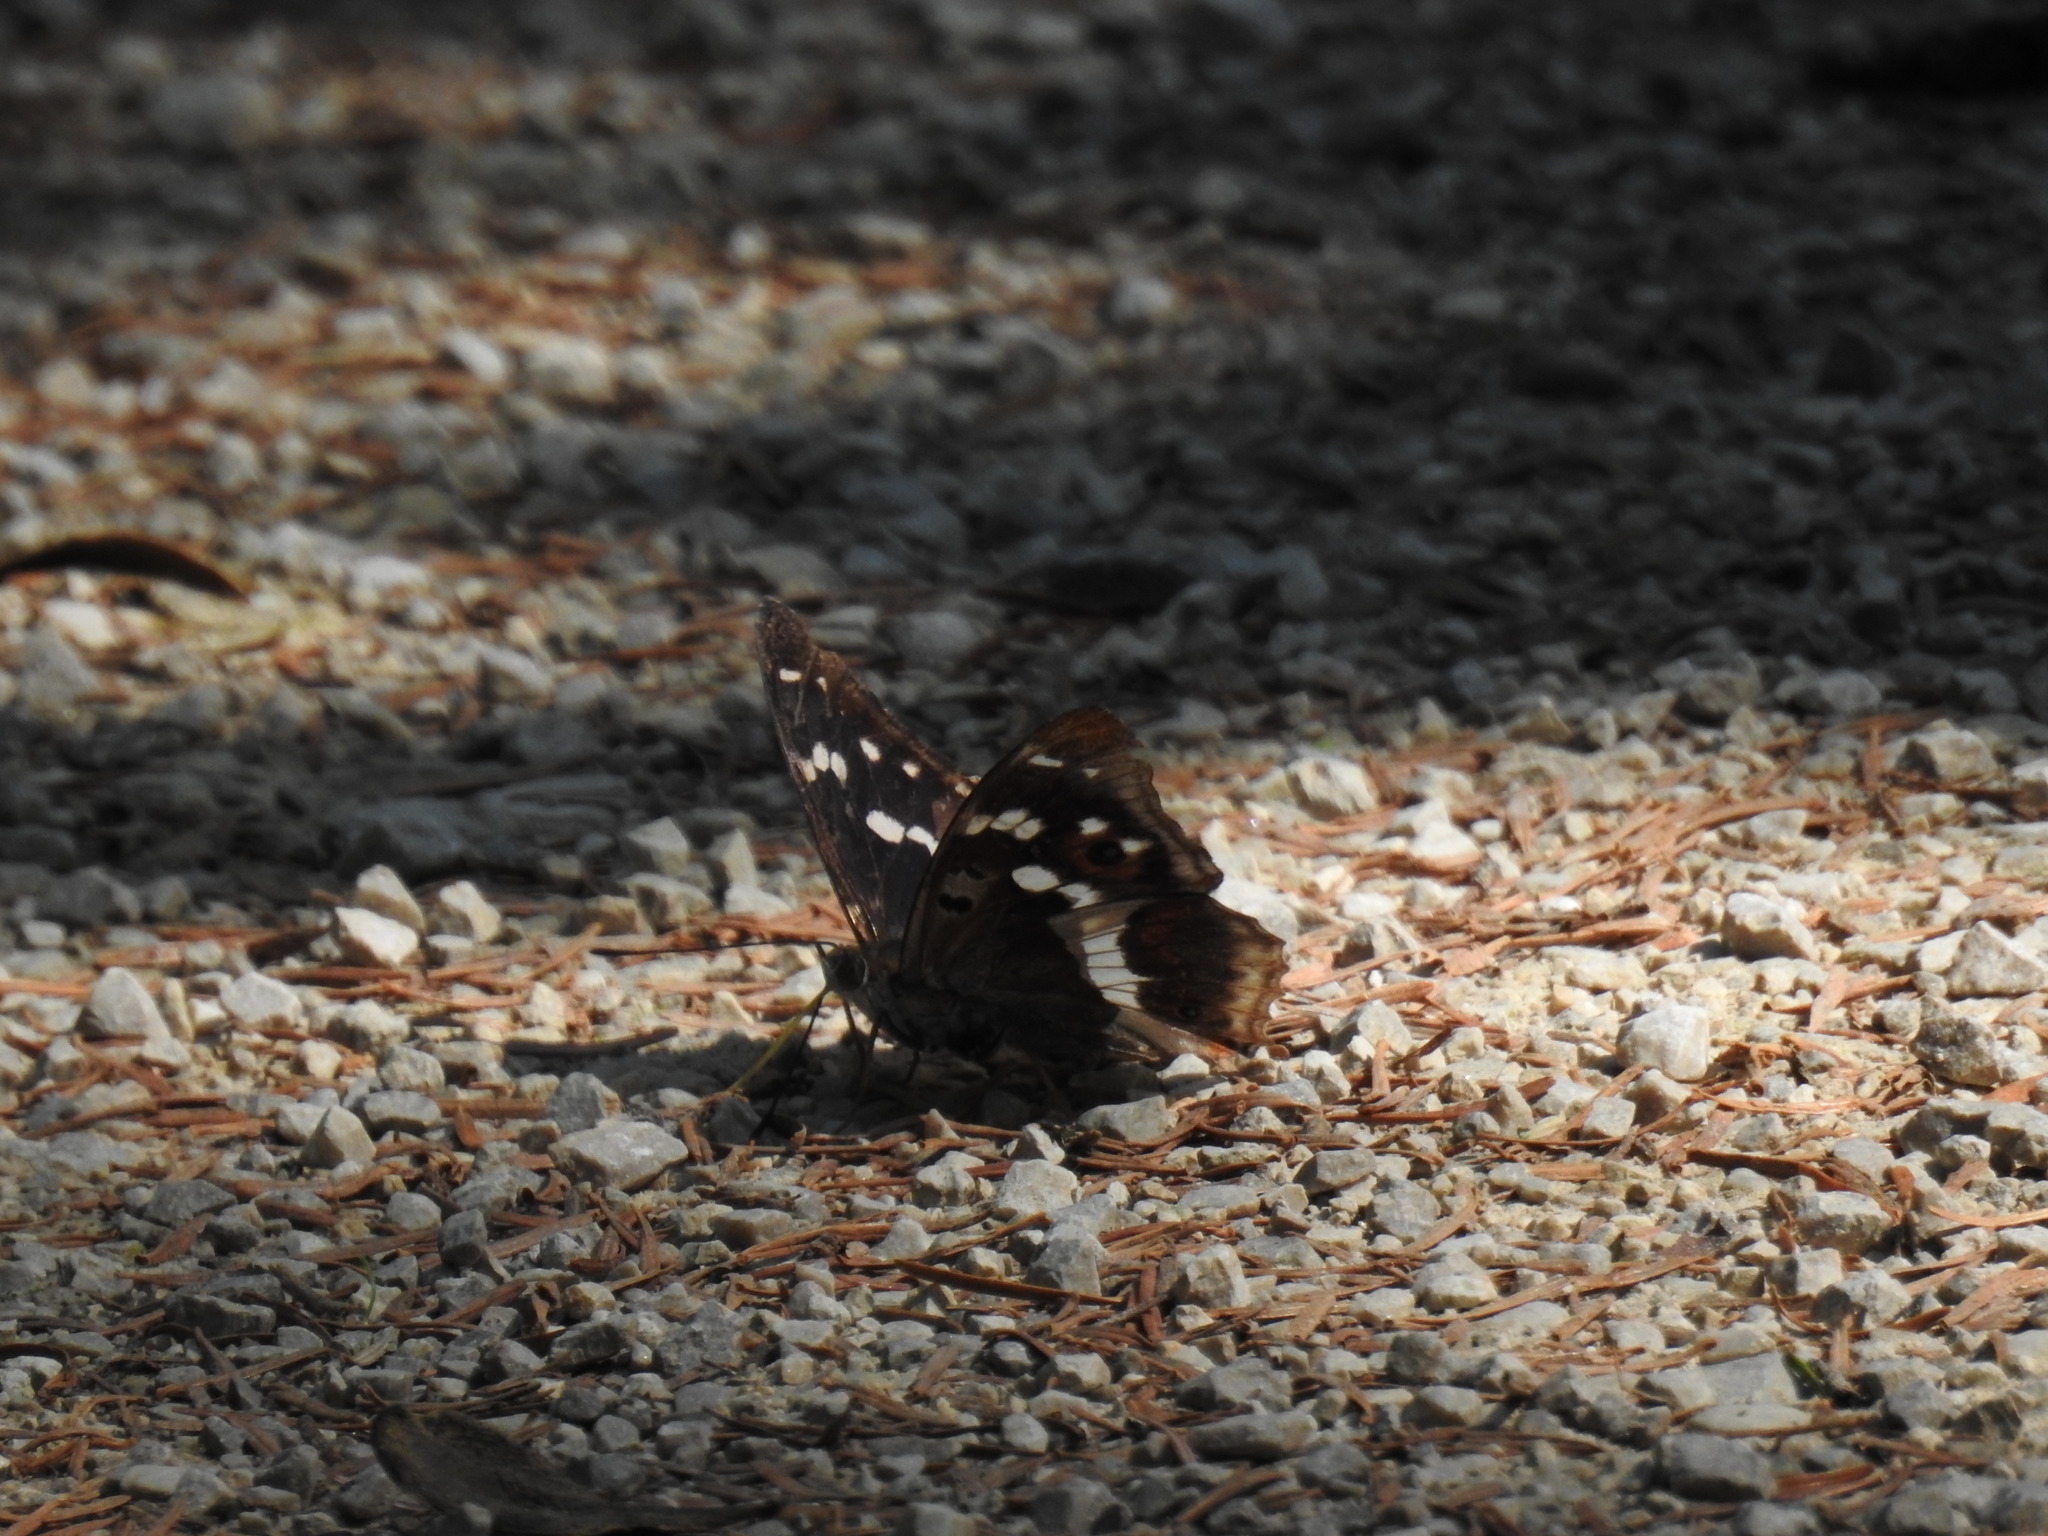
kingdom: Animalia
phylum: Arthropoda
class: Insecta
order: Lepidoptera
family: Nymphalidae
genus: Apatura
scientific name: Apatura iris
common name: Purple emperor
